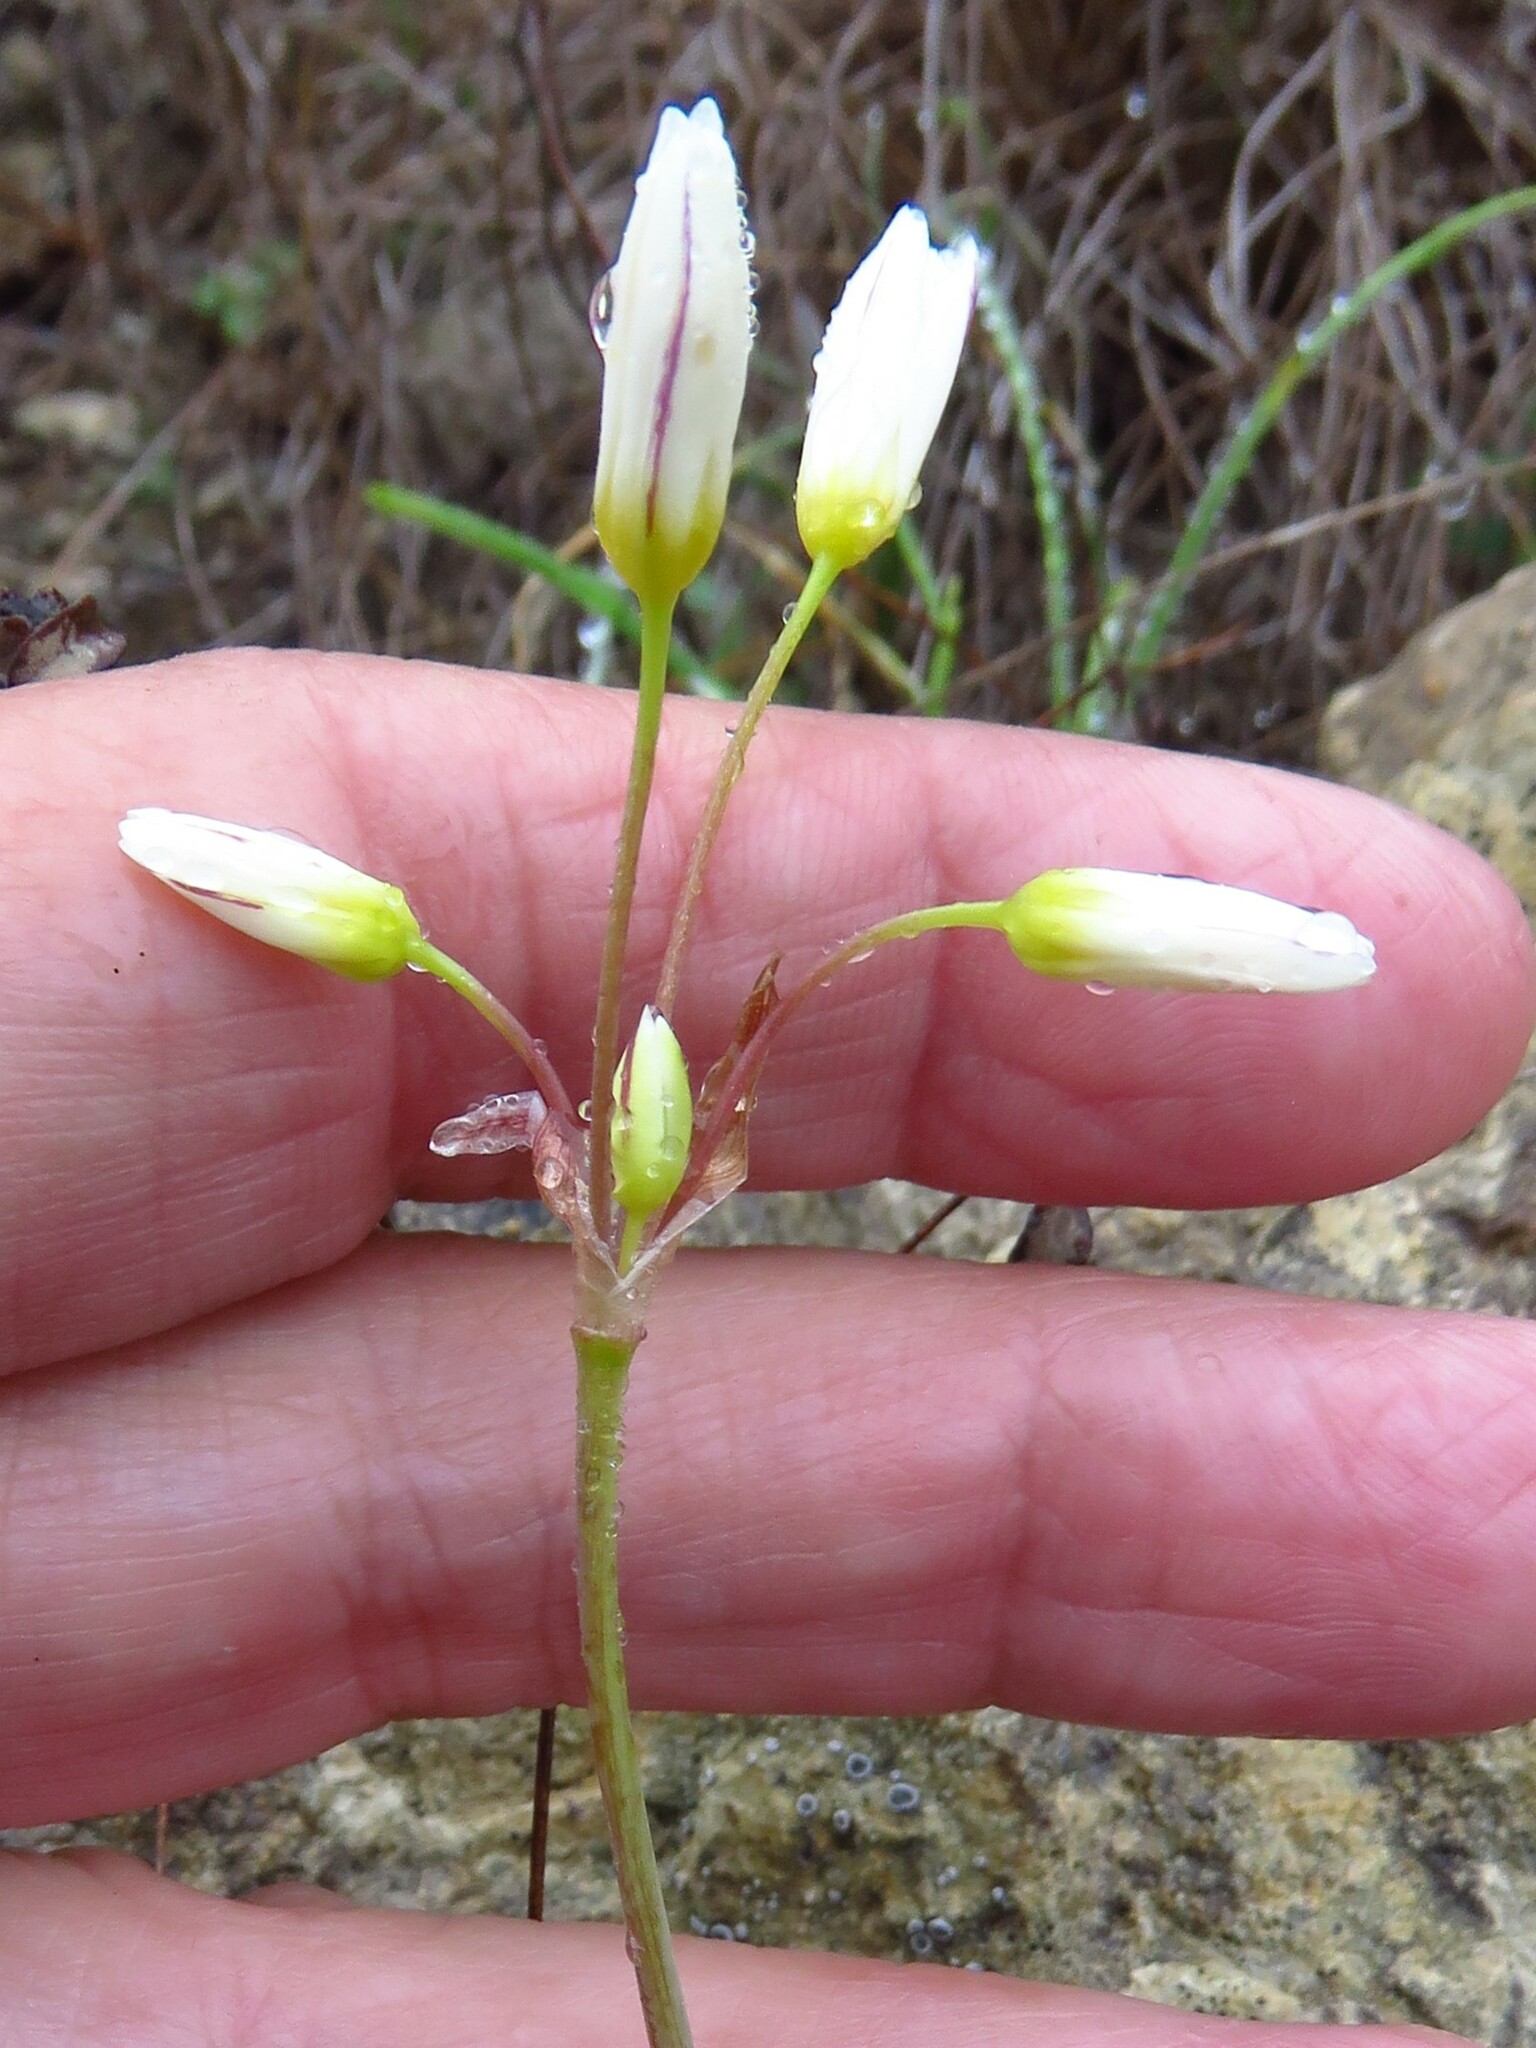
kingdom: Plantae
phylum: Tracheophyta
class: Liliopsida
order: Asparagales
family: Amaryllidaceae
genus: Nothoscordum
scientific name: Nothoscordum bivalve
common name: Crow-poison
